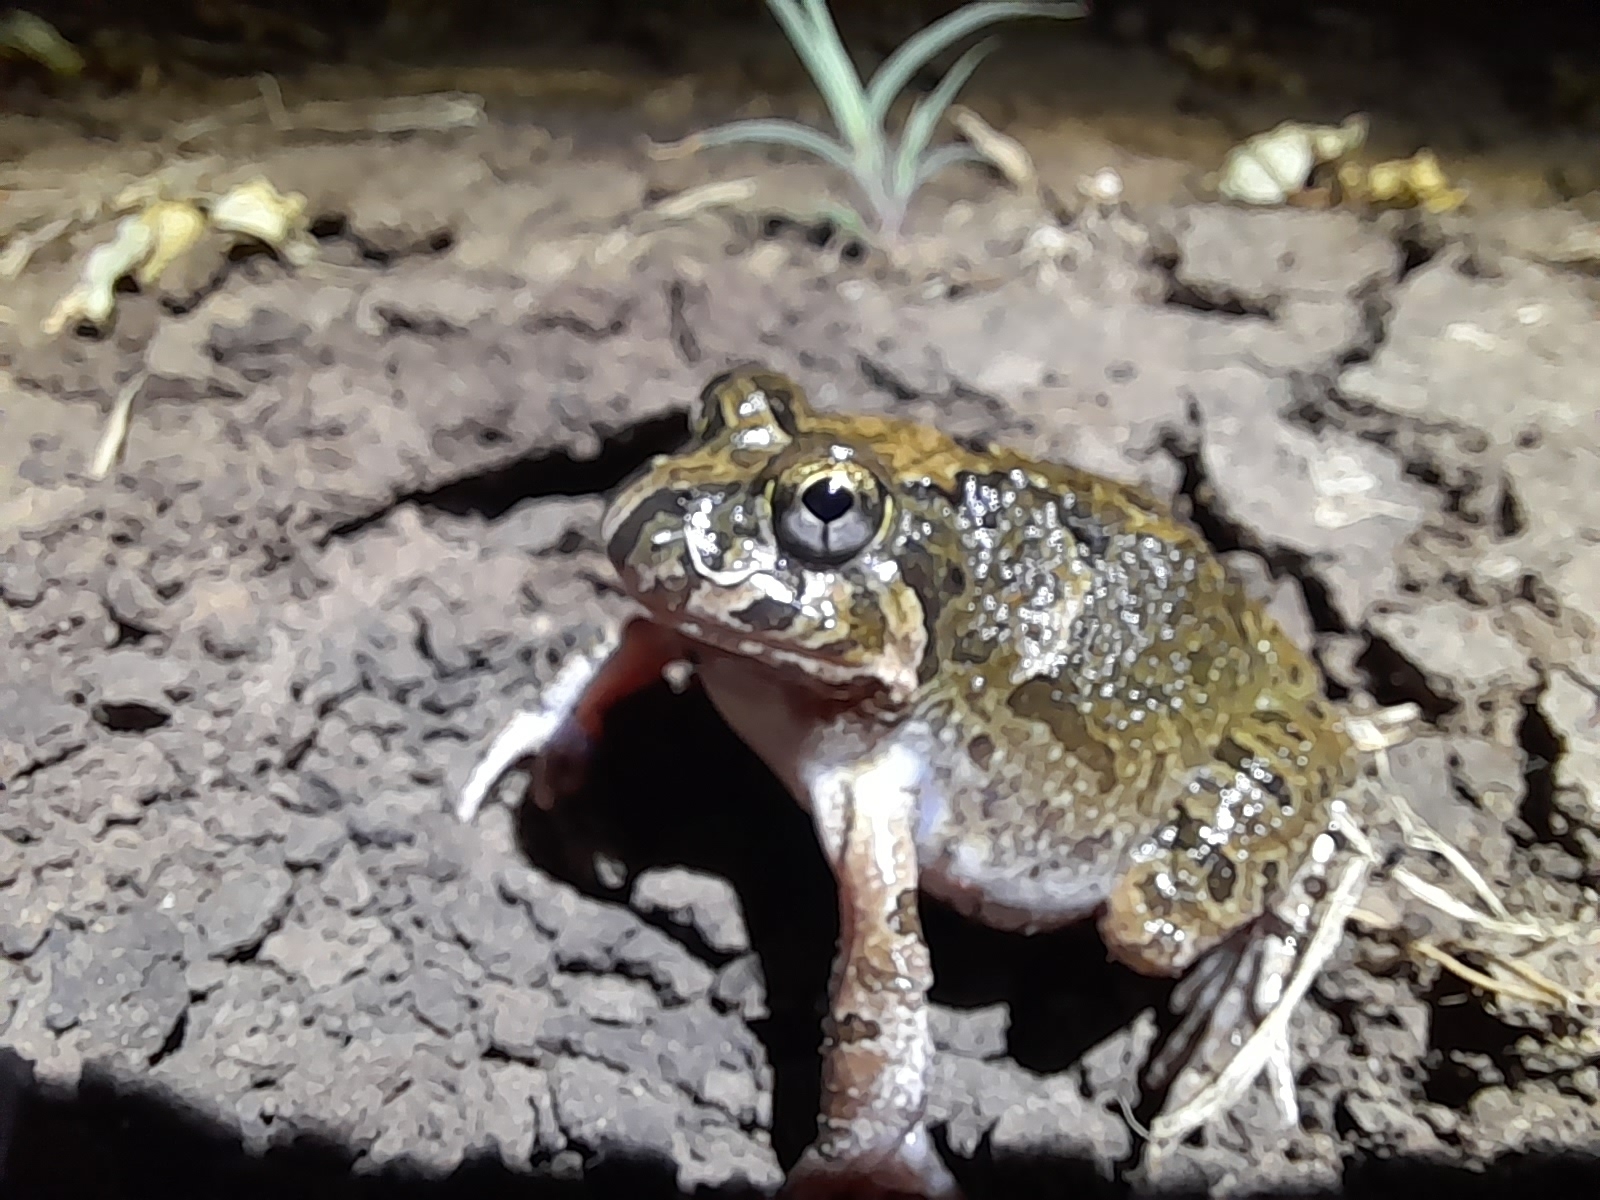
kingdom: Animalia
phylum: Chordata
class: Amphibia
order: Anura
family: Limnodynastidae
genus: Platyplectrum
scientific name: Platyplectrum ornatum
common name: Ornate burrowing frog
